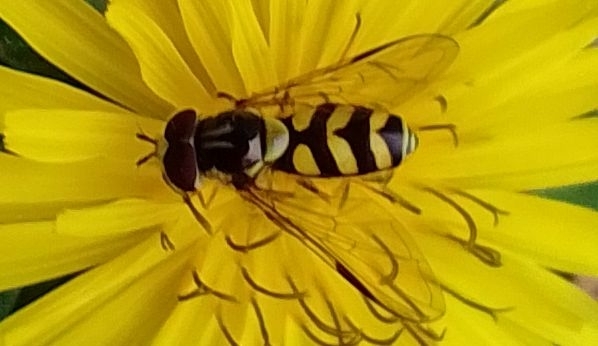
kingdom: Animalia
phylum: Arthropoda
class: Insecta
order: Diptera
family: Syrphidae
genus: Dasysyrphus
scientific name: Dasysyrphus albostriatus
